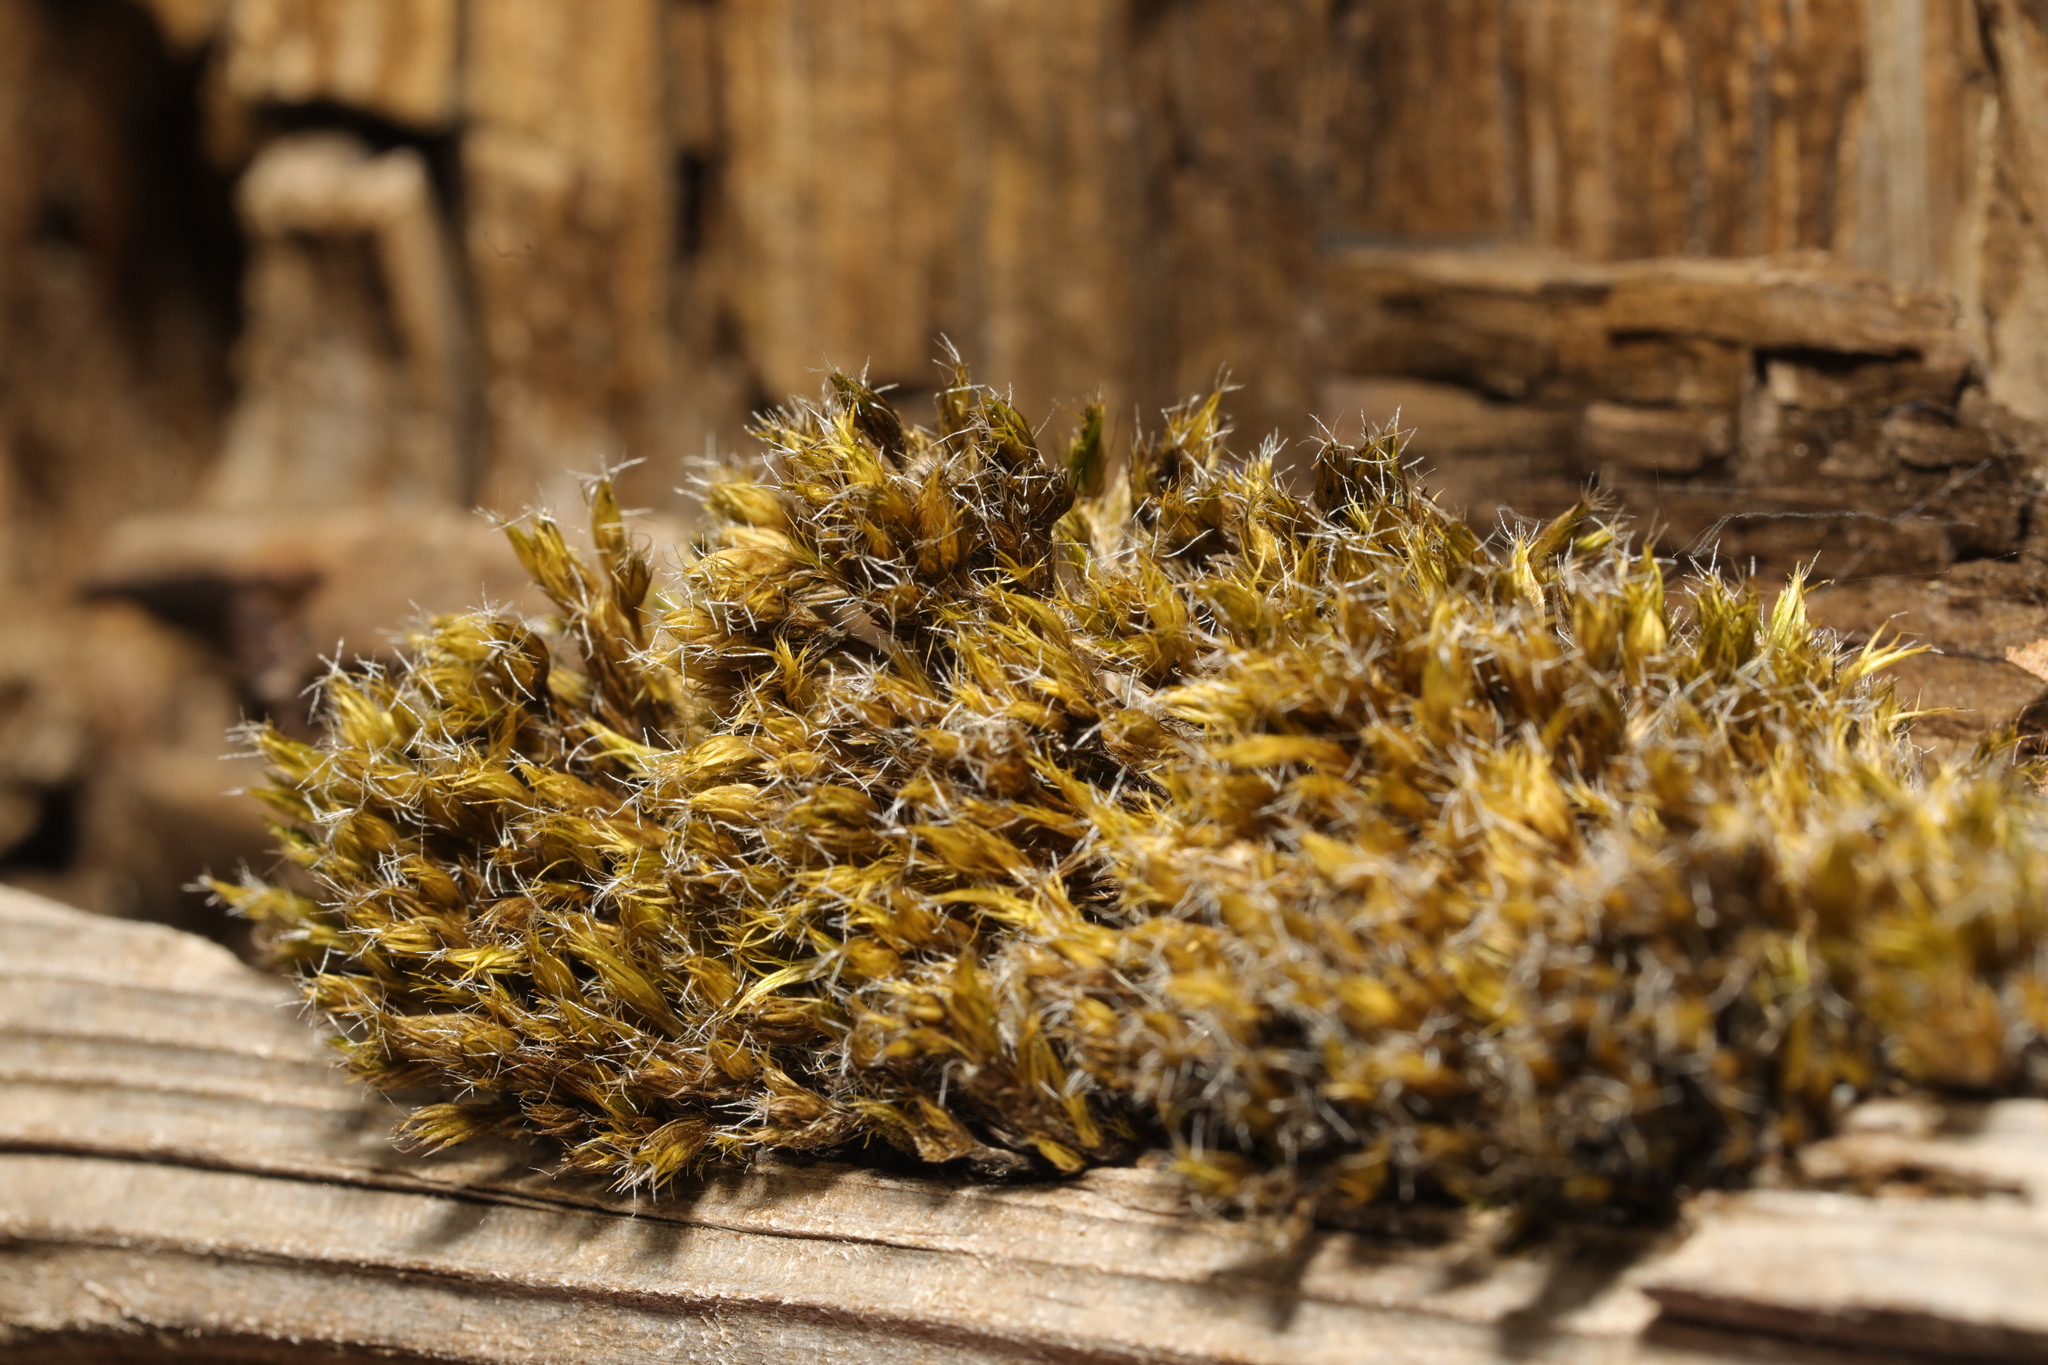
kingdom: Plantae
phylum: Bryophyta
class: Bryopsida
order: Dicranales
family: Leucobryaceae
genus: Campylopus
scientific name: Campylopus introflexus
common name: Heath star moss
